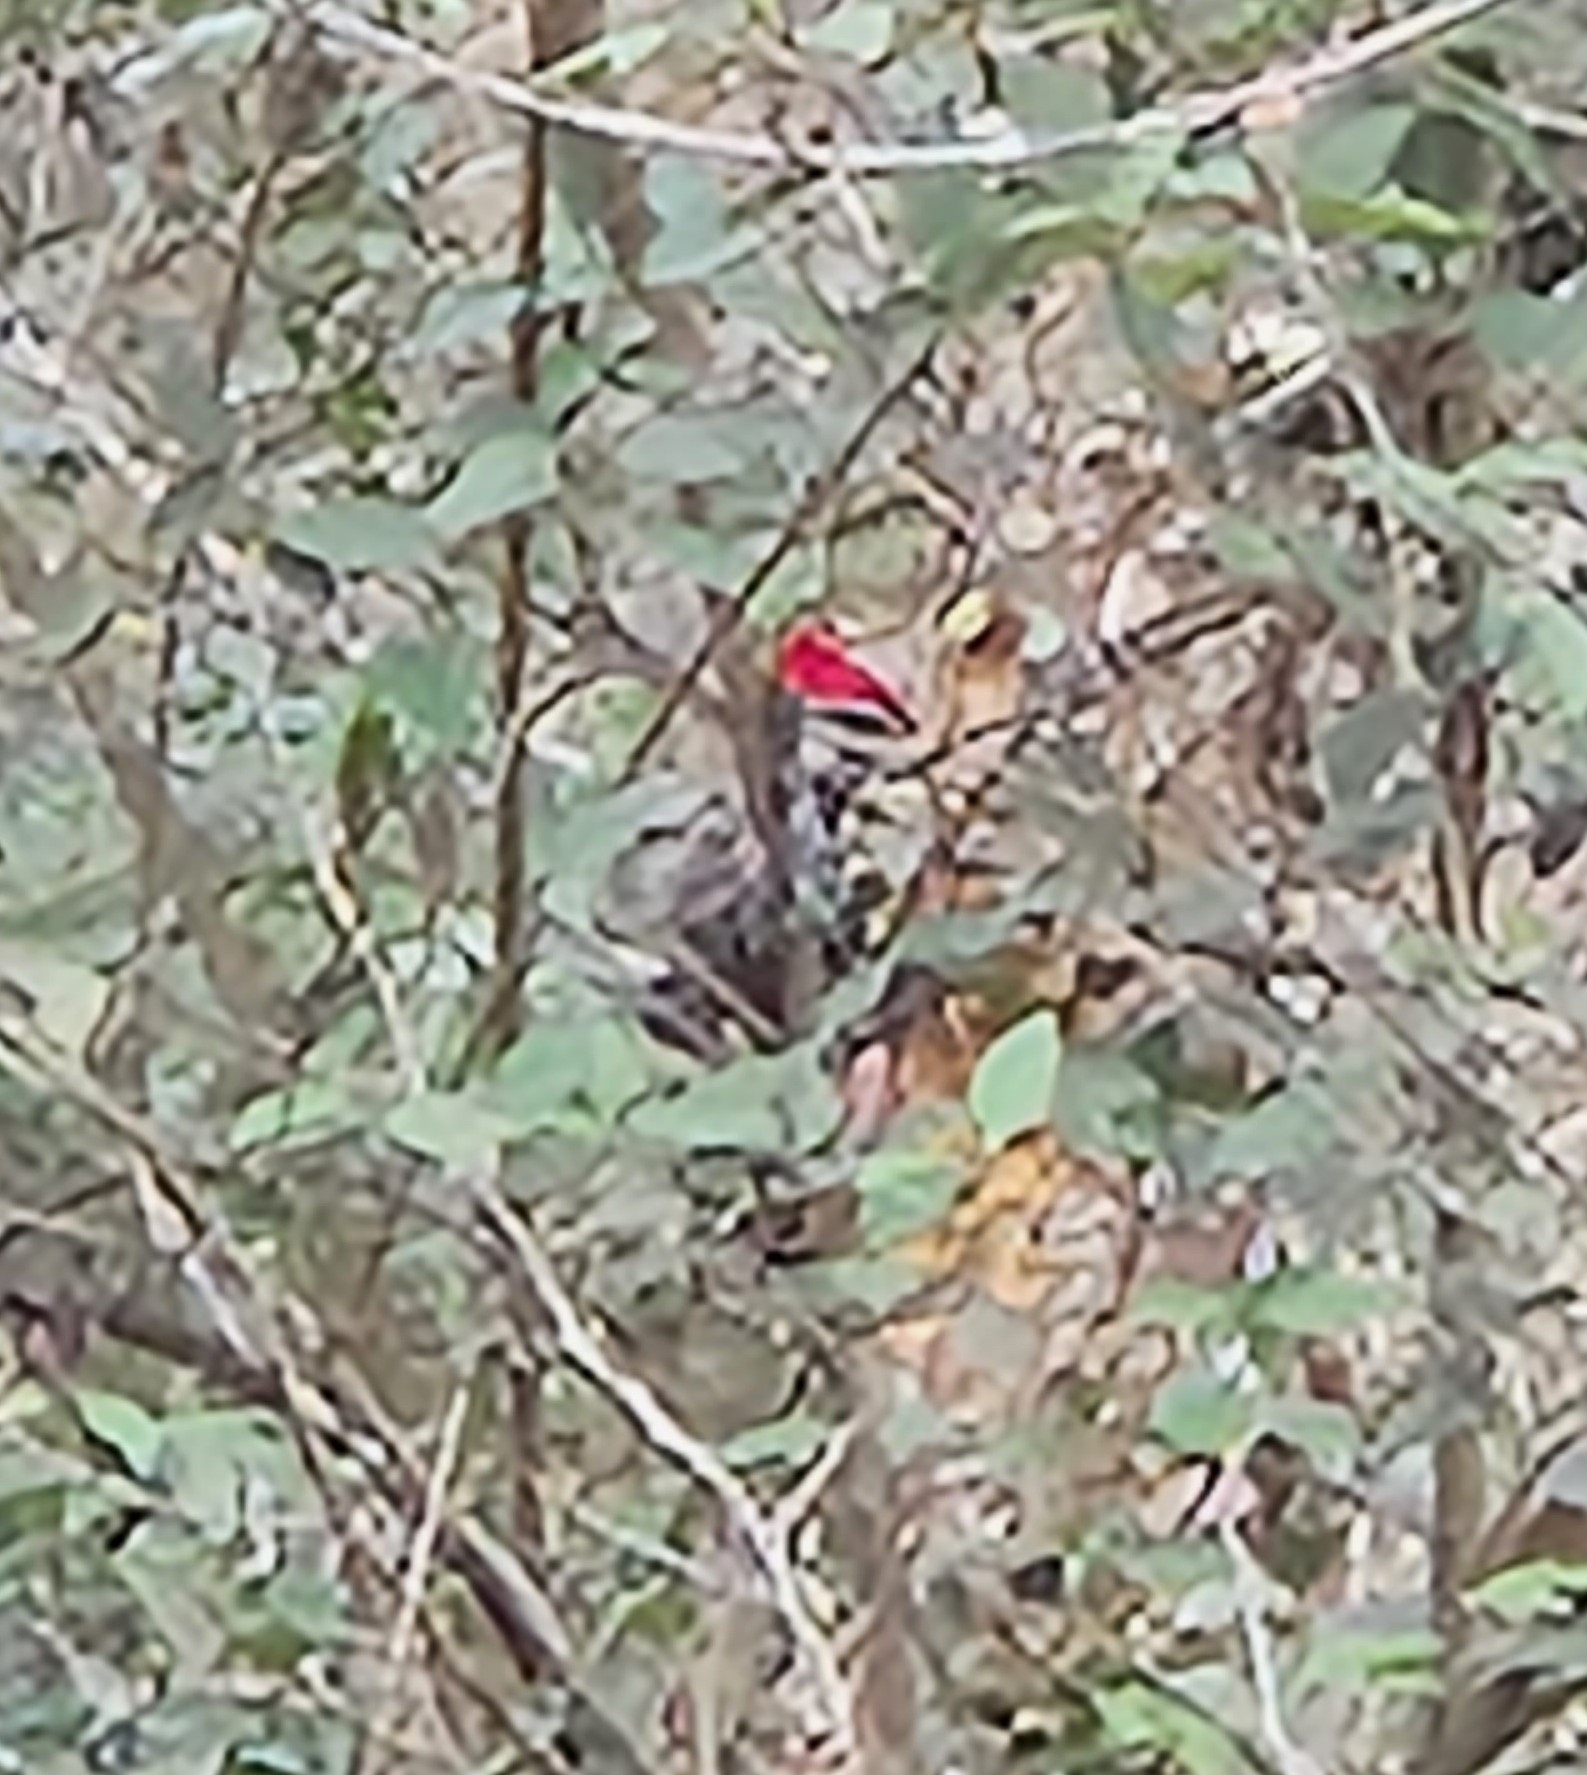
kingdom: Animalia
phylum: Chordata
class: Aves
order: Piciformes
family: Picidae
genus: Dryocopus
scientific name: Dryocopus pileatus
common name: Pileated woodpecker
